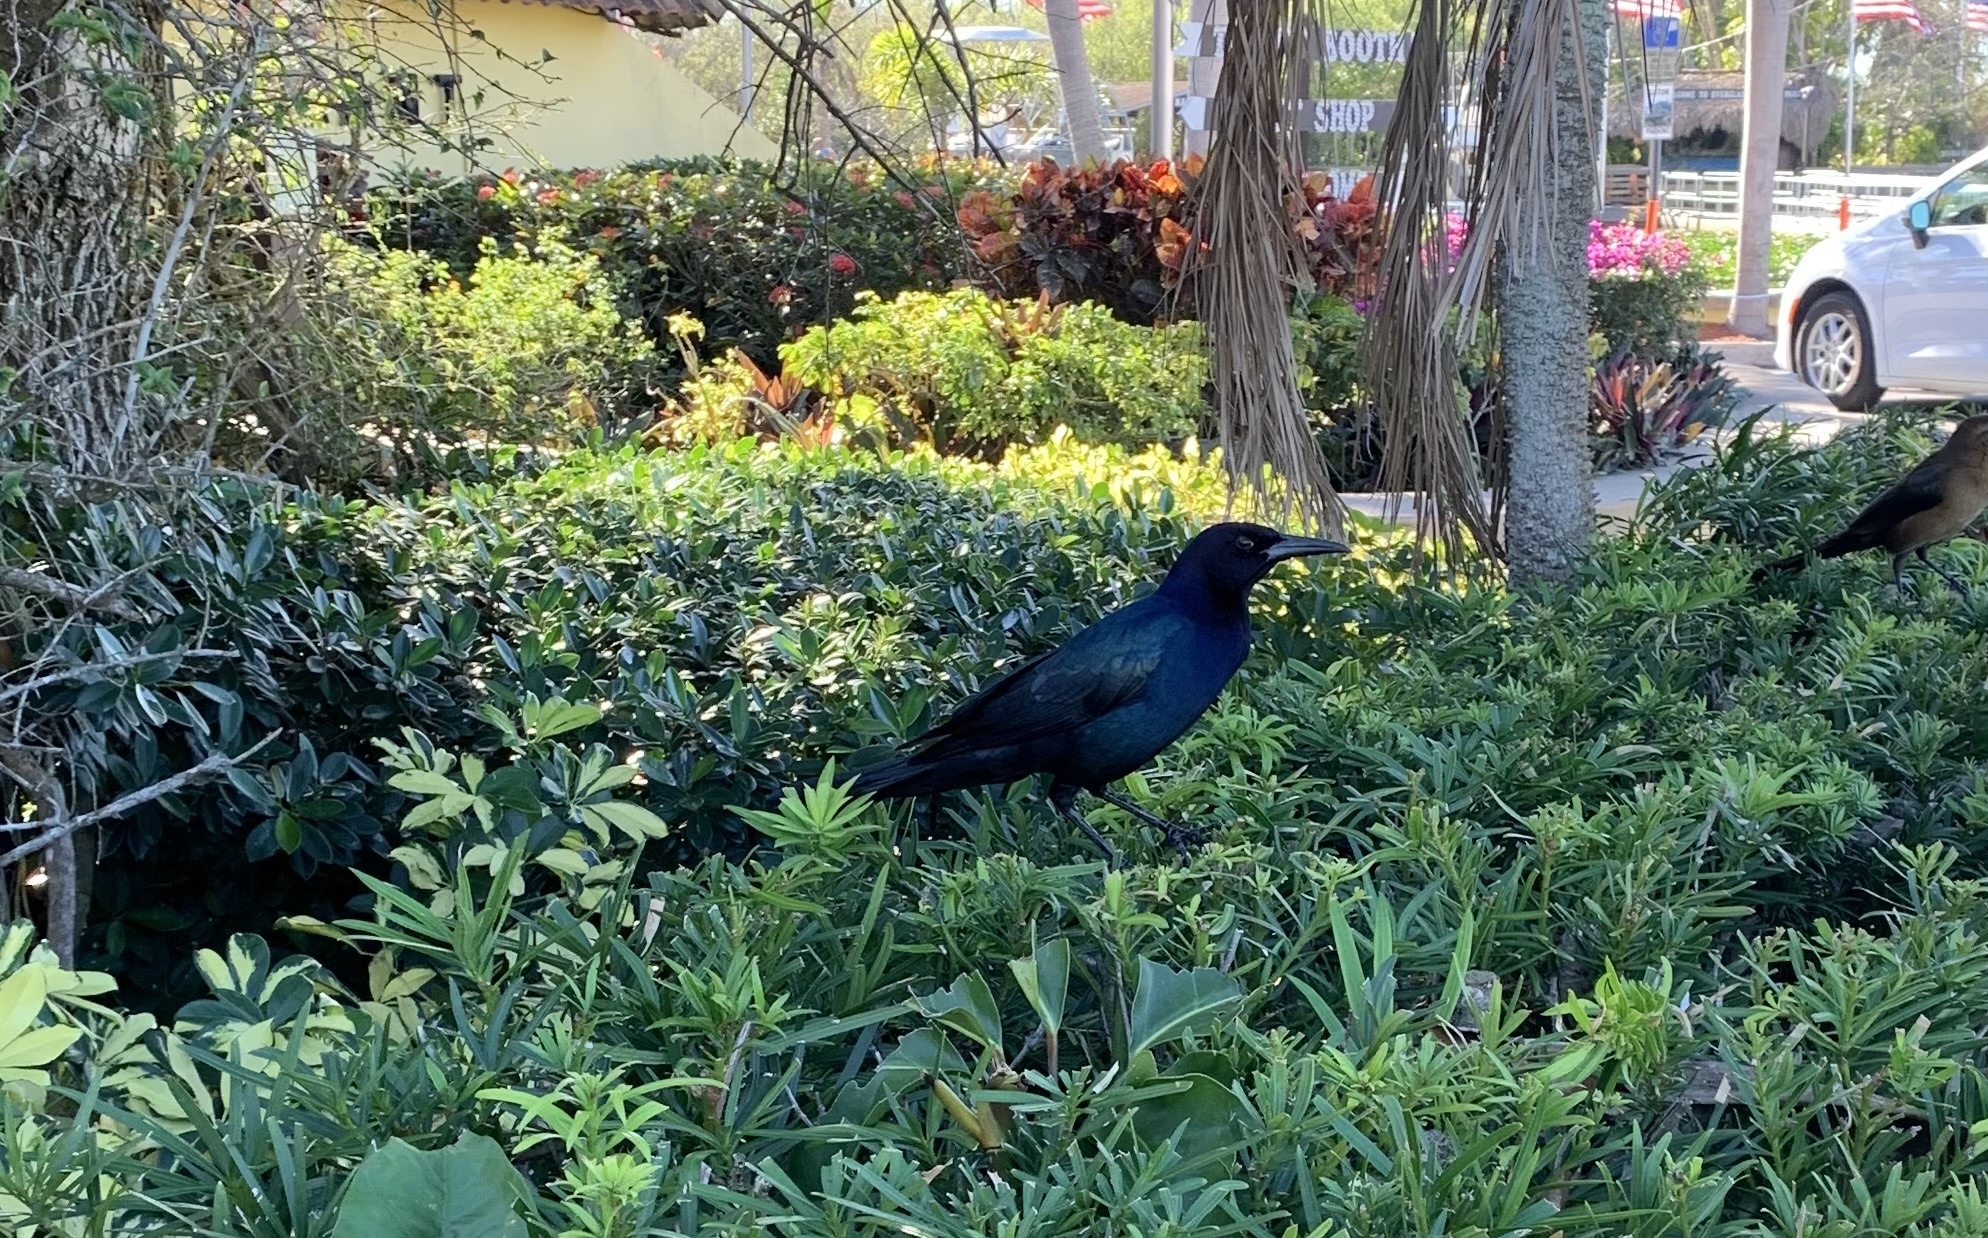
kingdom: Animalia
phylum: Chordata
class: Aves
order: Passeriformes
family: Icteridae
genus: Quiscalus
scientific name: Quiscalus major
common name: Boat-tailed grackle
